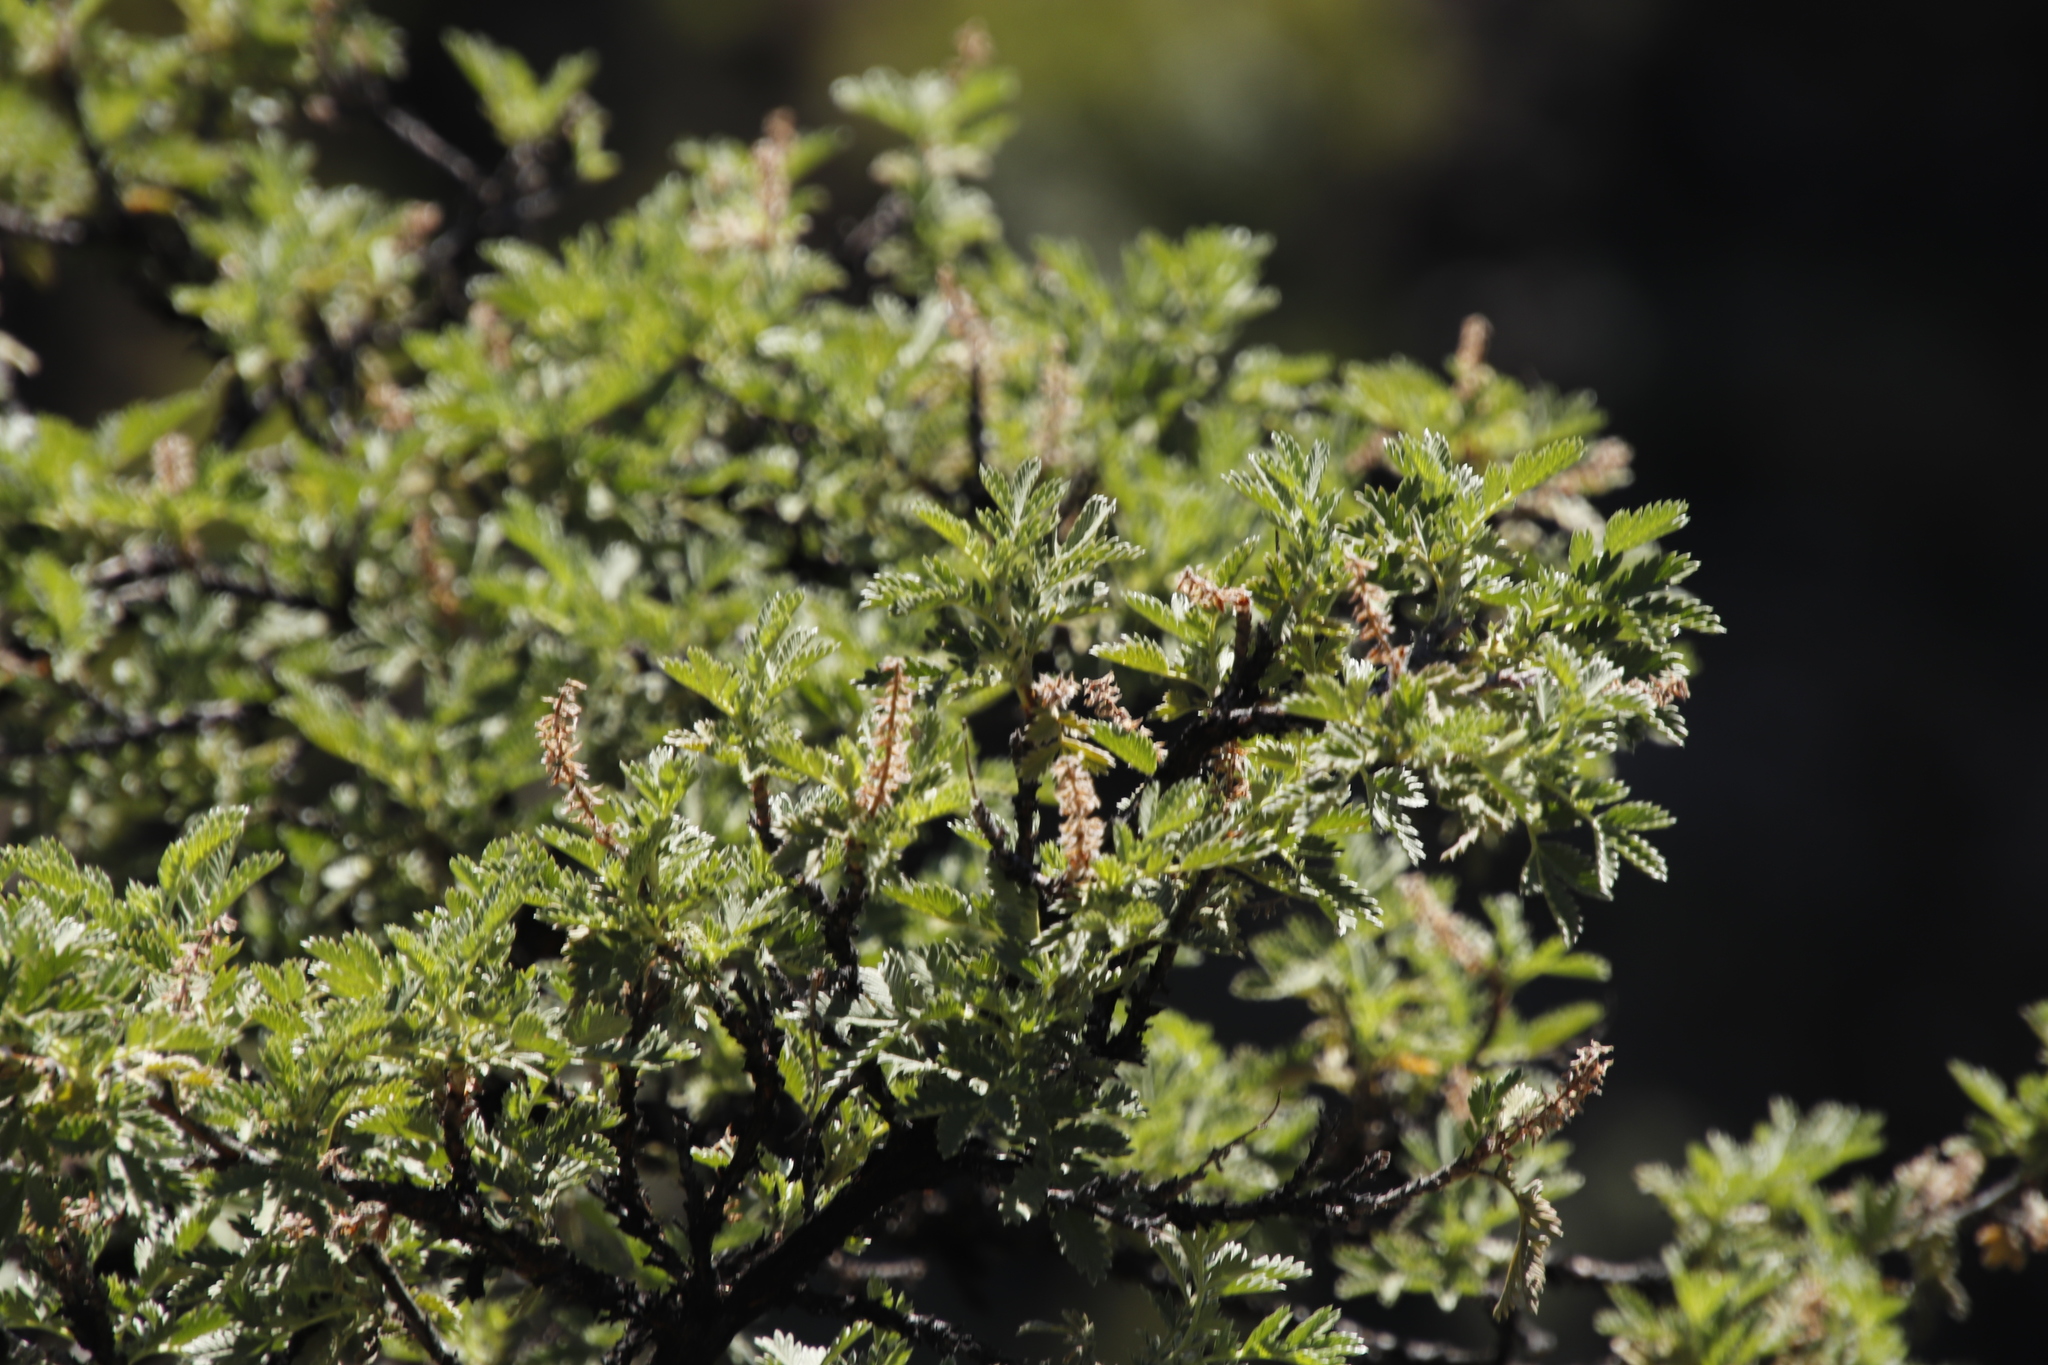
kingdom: Plantae
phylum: Tracheophyta
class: Magnoliopsida
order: Rosales
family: Rosaceae
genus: Leucosidea
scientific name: Leucosidea sericea
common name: Oldwood
